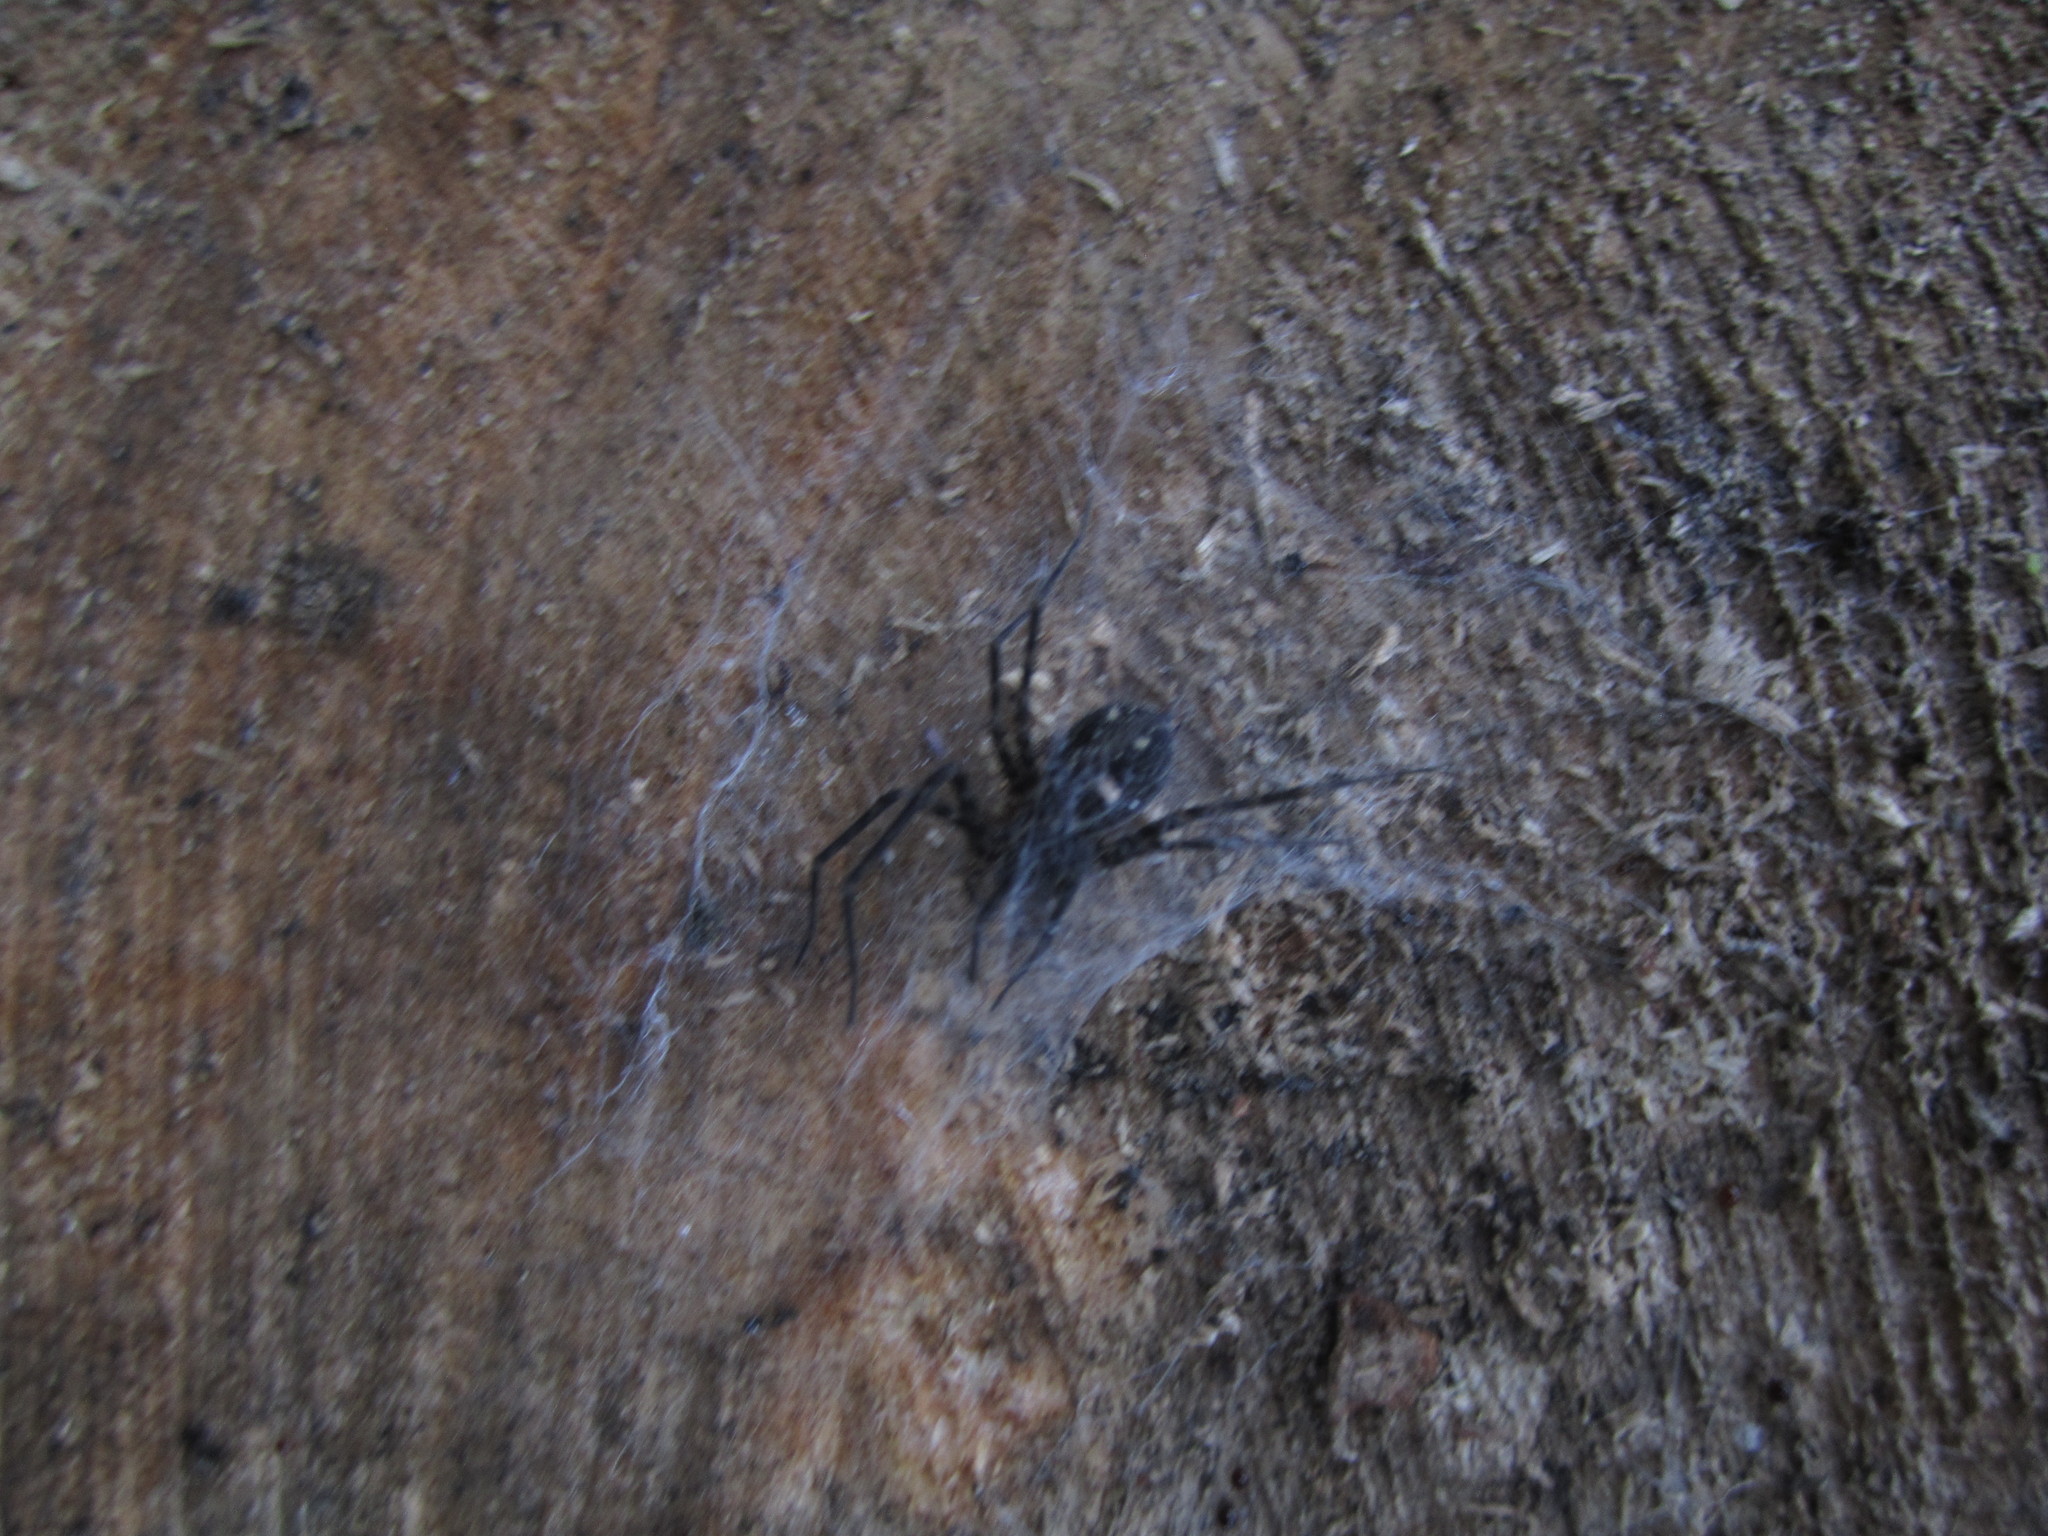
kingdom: Animalia
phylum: Arthropoda
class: Arachnida
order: Araneae
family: Stiphidiidae
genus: Stiphidion
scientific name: Stiphidion facetum
